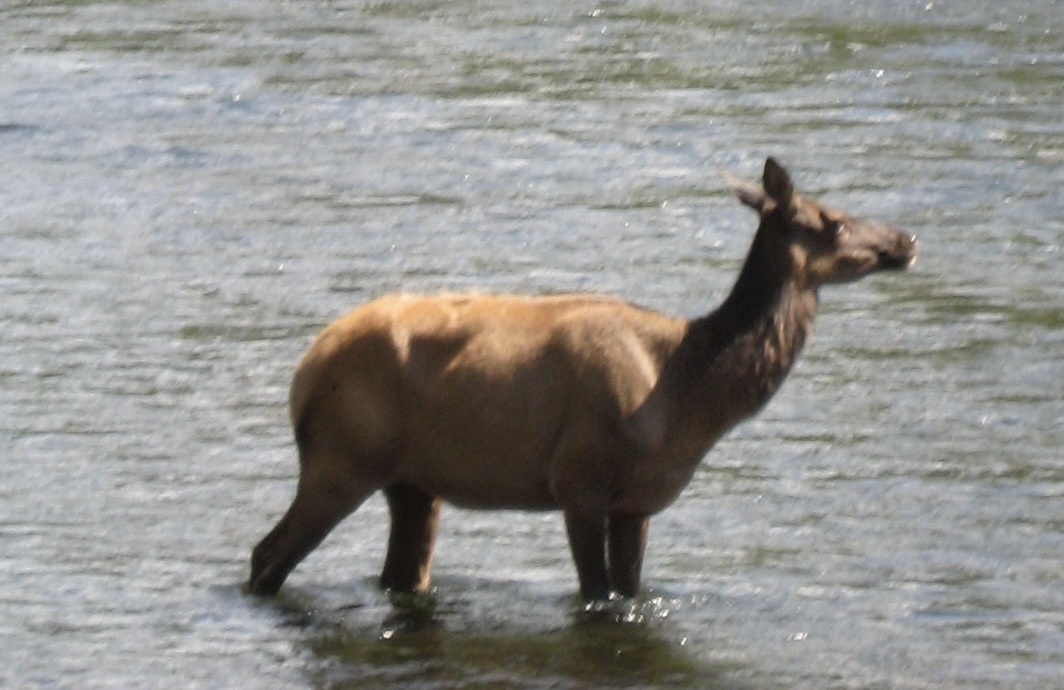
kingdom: Animalia
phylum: Chordata
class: Mammalia
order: Artiodactyla
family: Cervidae
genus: Cervus
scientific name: Cervus elaphus
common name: Red deer
